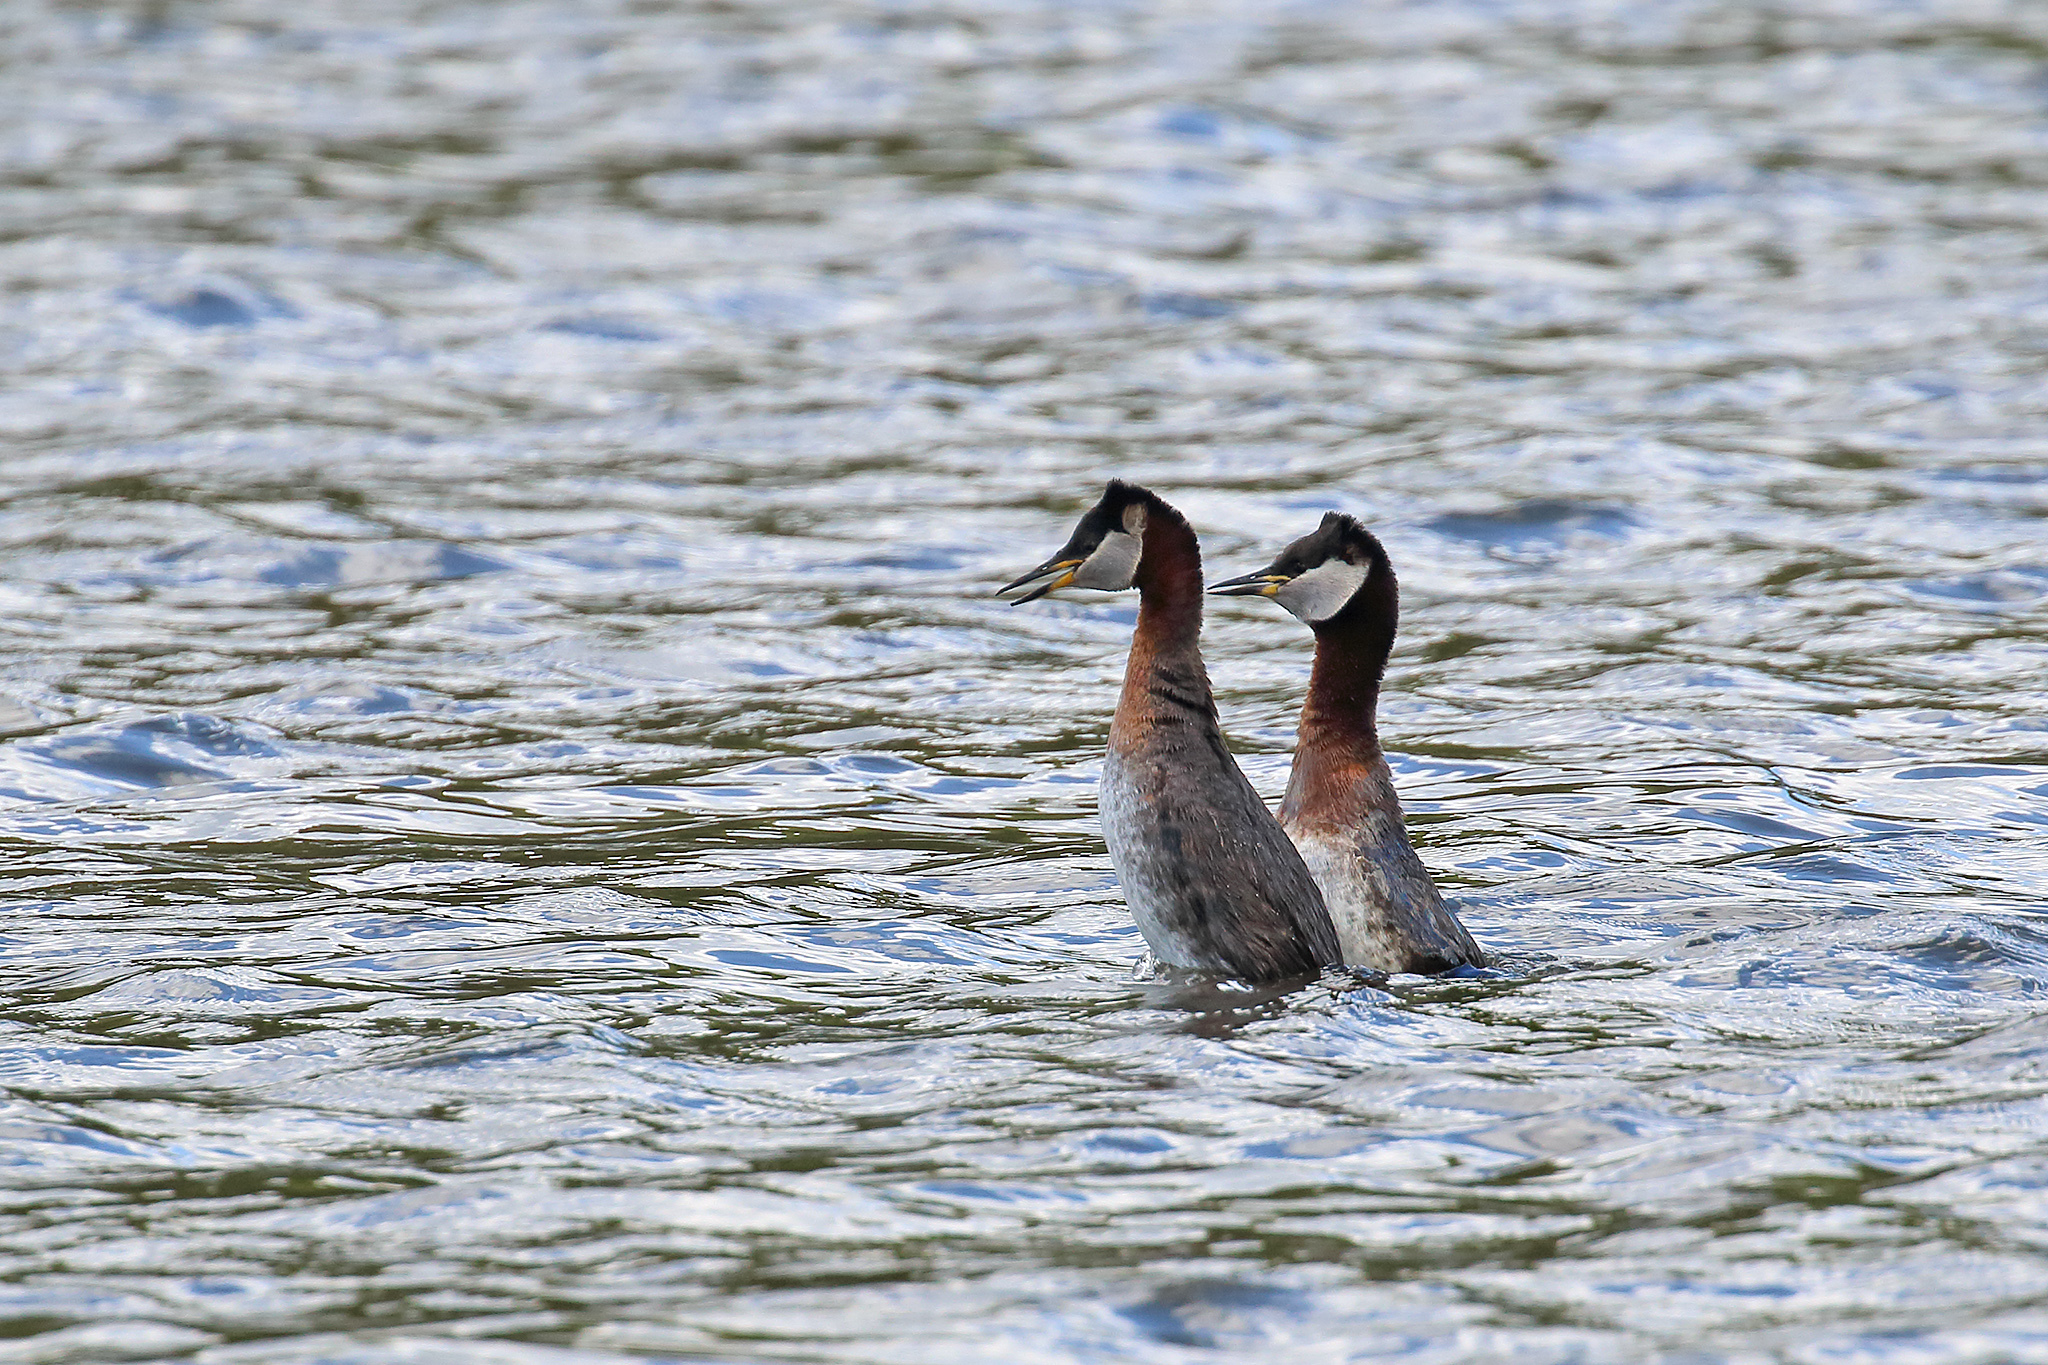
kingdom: Animalia
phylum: Chordata
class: Aves
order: Podicipediformes
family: Podicipedidae
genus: Podiceps
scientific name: Podiceps grisegena
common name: Red-necked grebe
